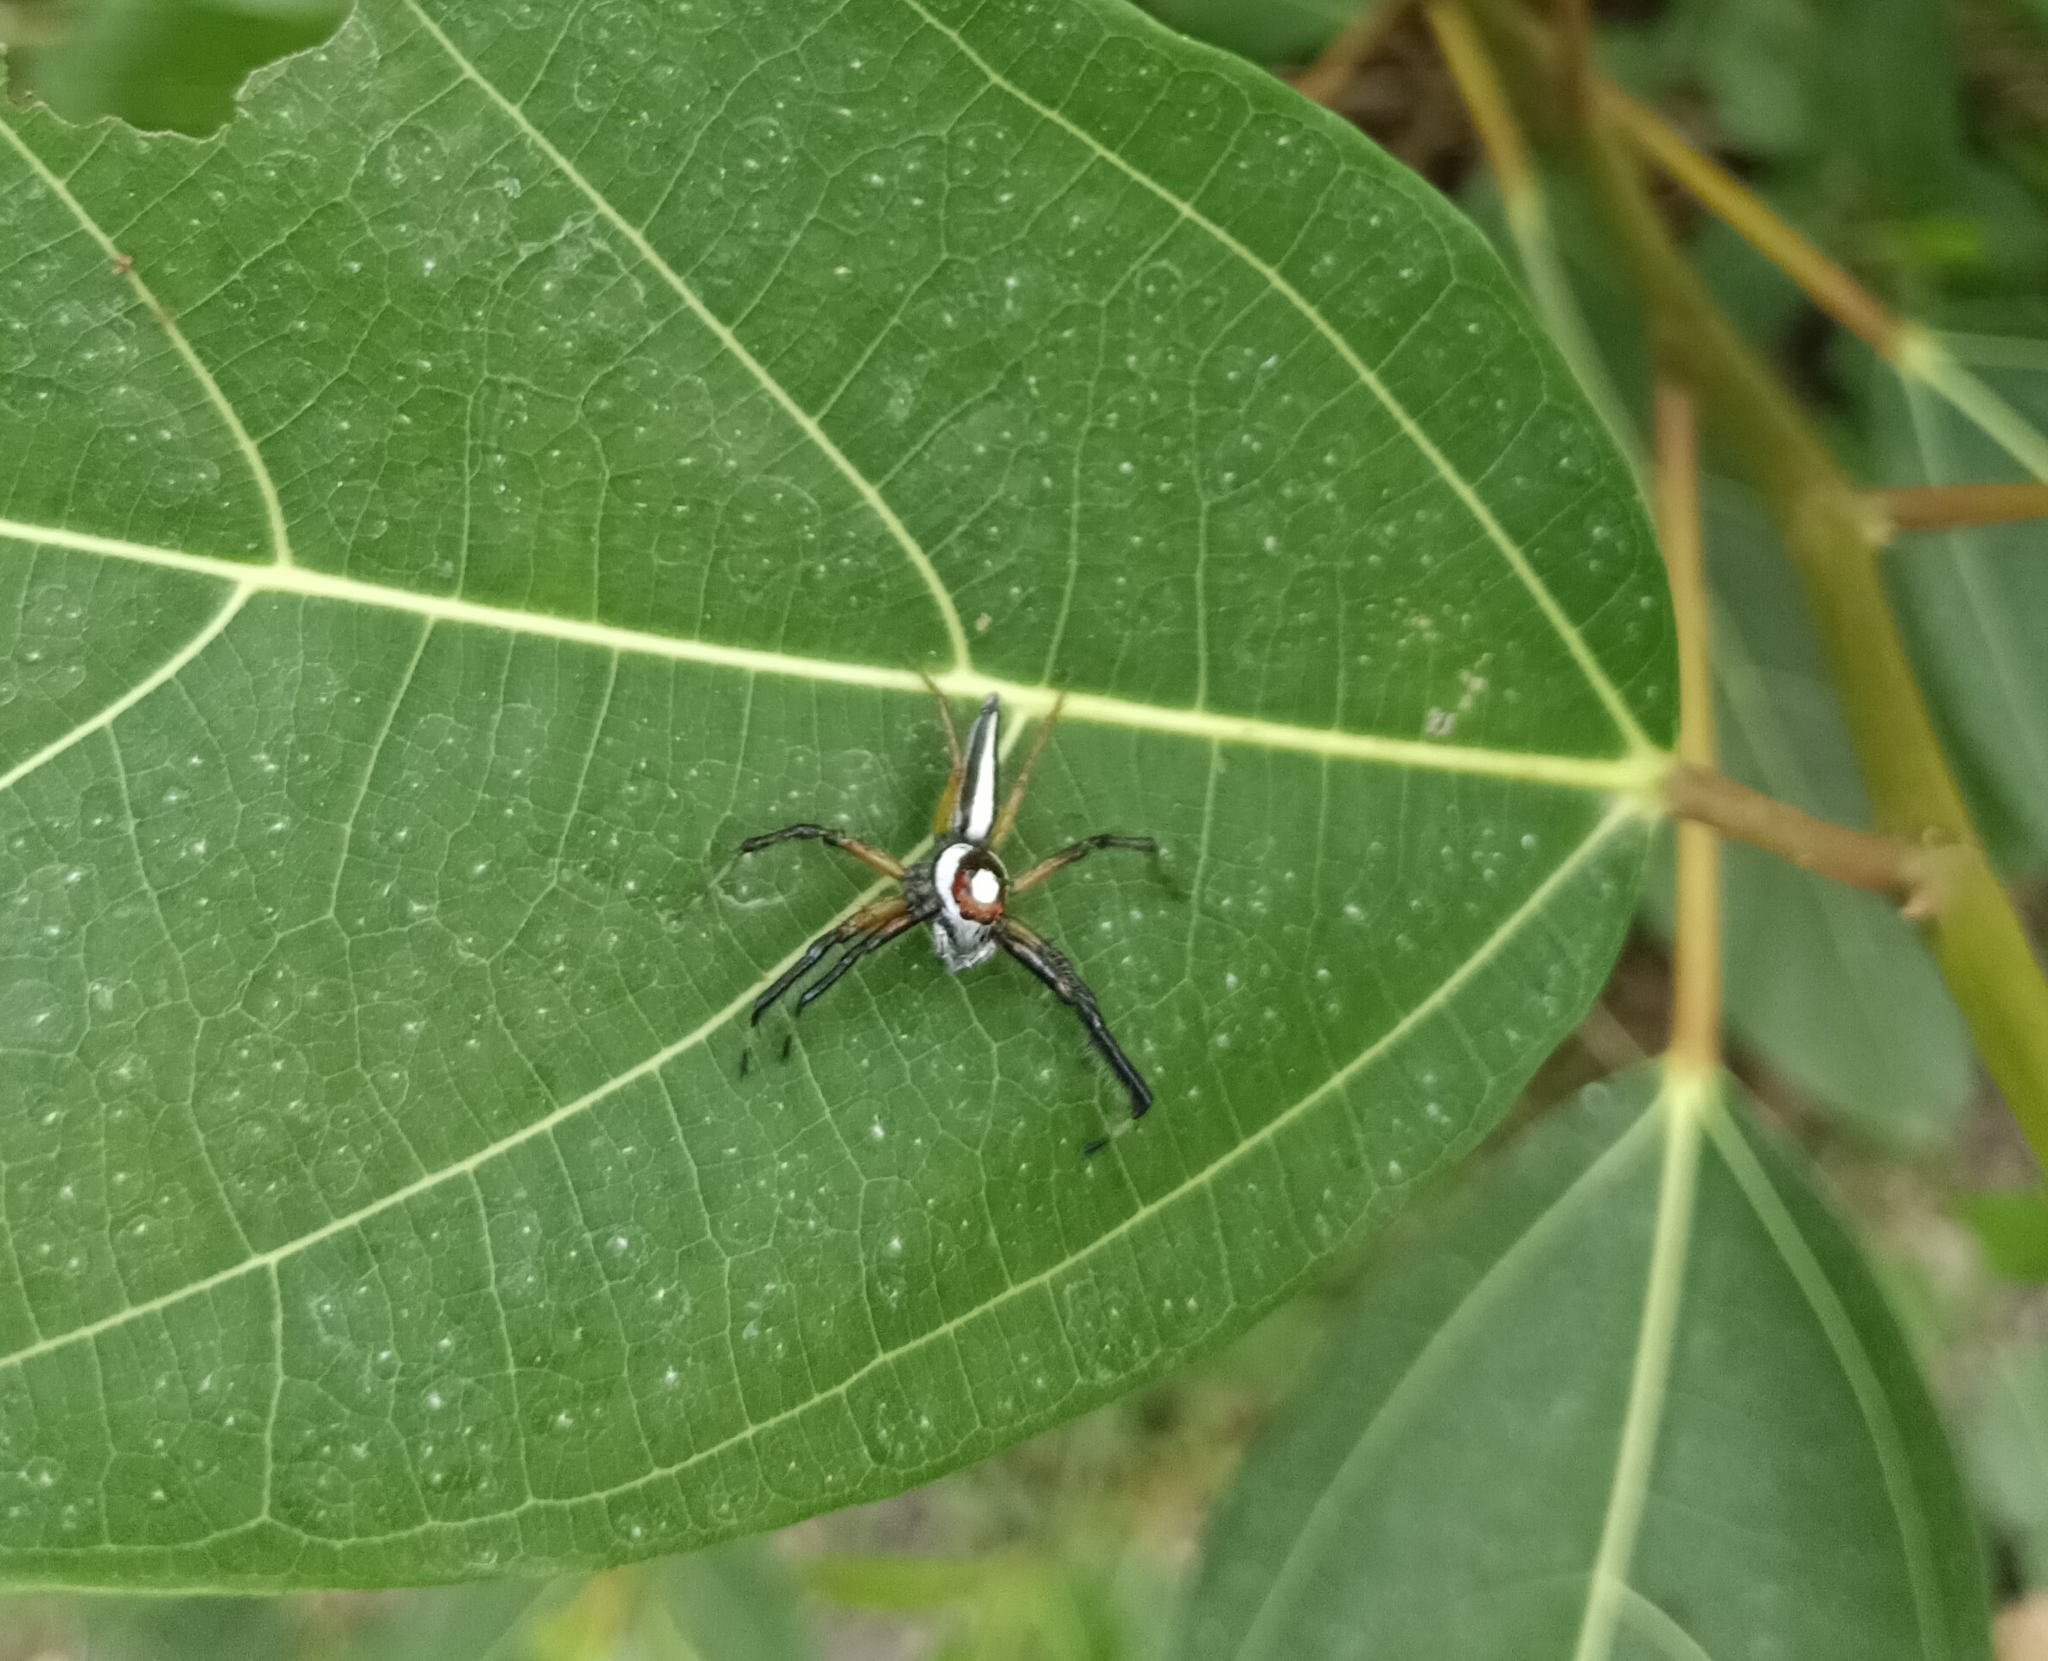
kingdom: Animalia
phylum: Arthropoda
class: Arachnida
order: Araneae
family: Salticidae
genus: Telamonia
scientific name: Telamonia dimidiata
